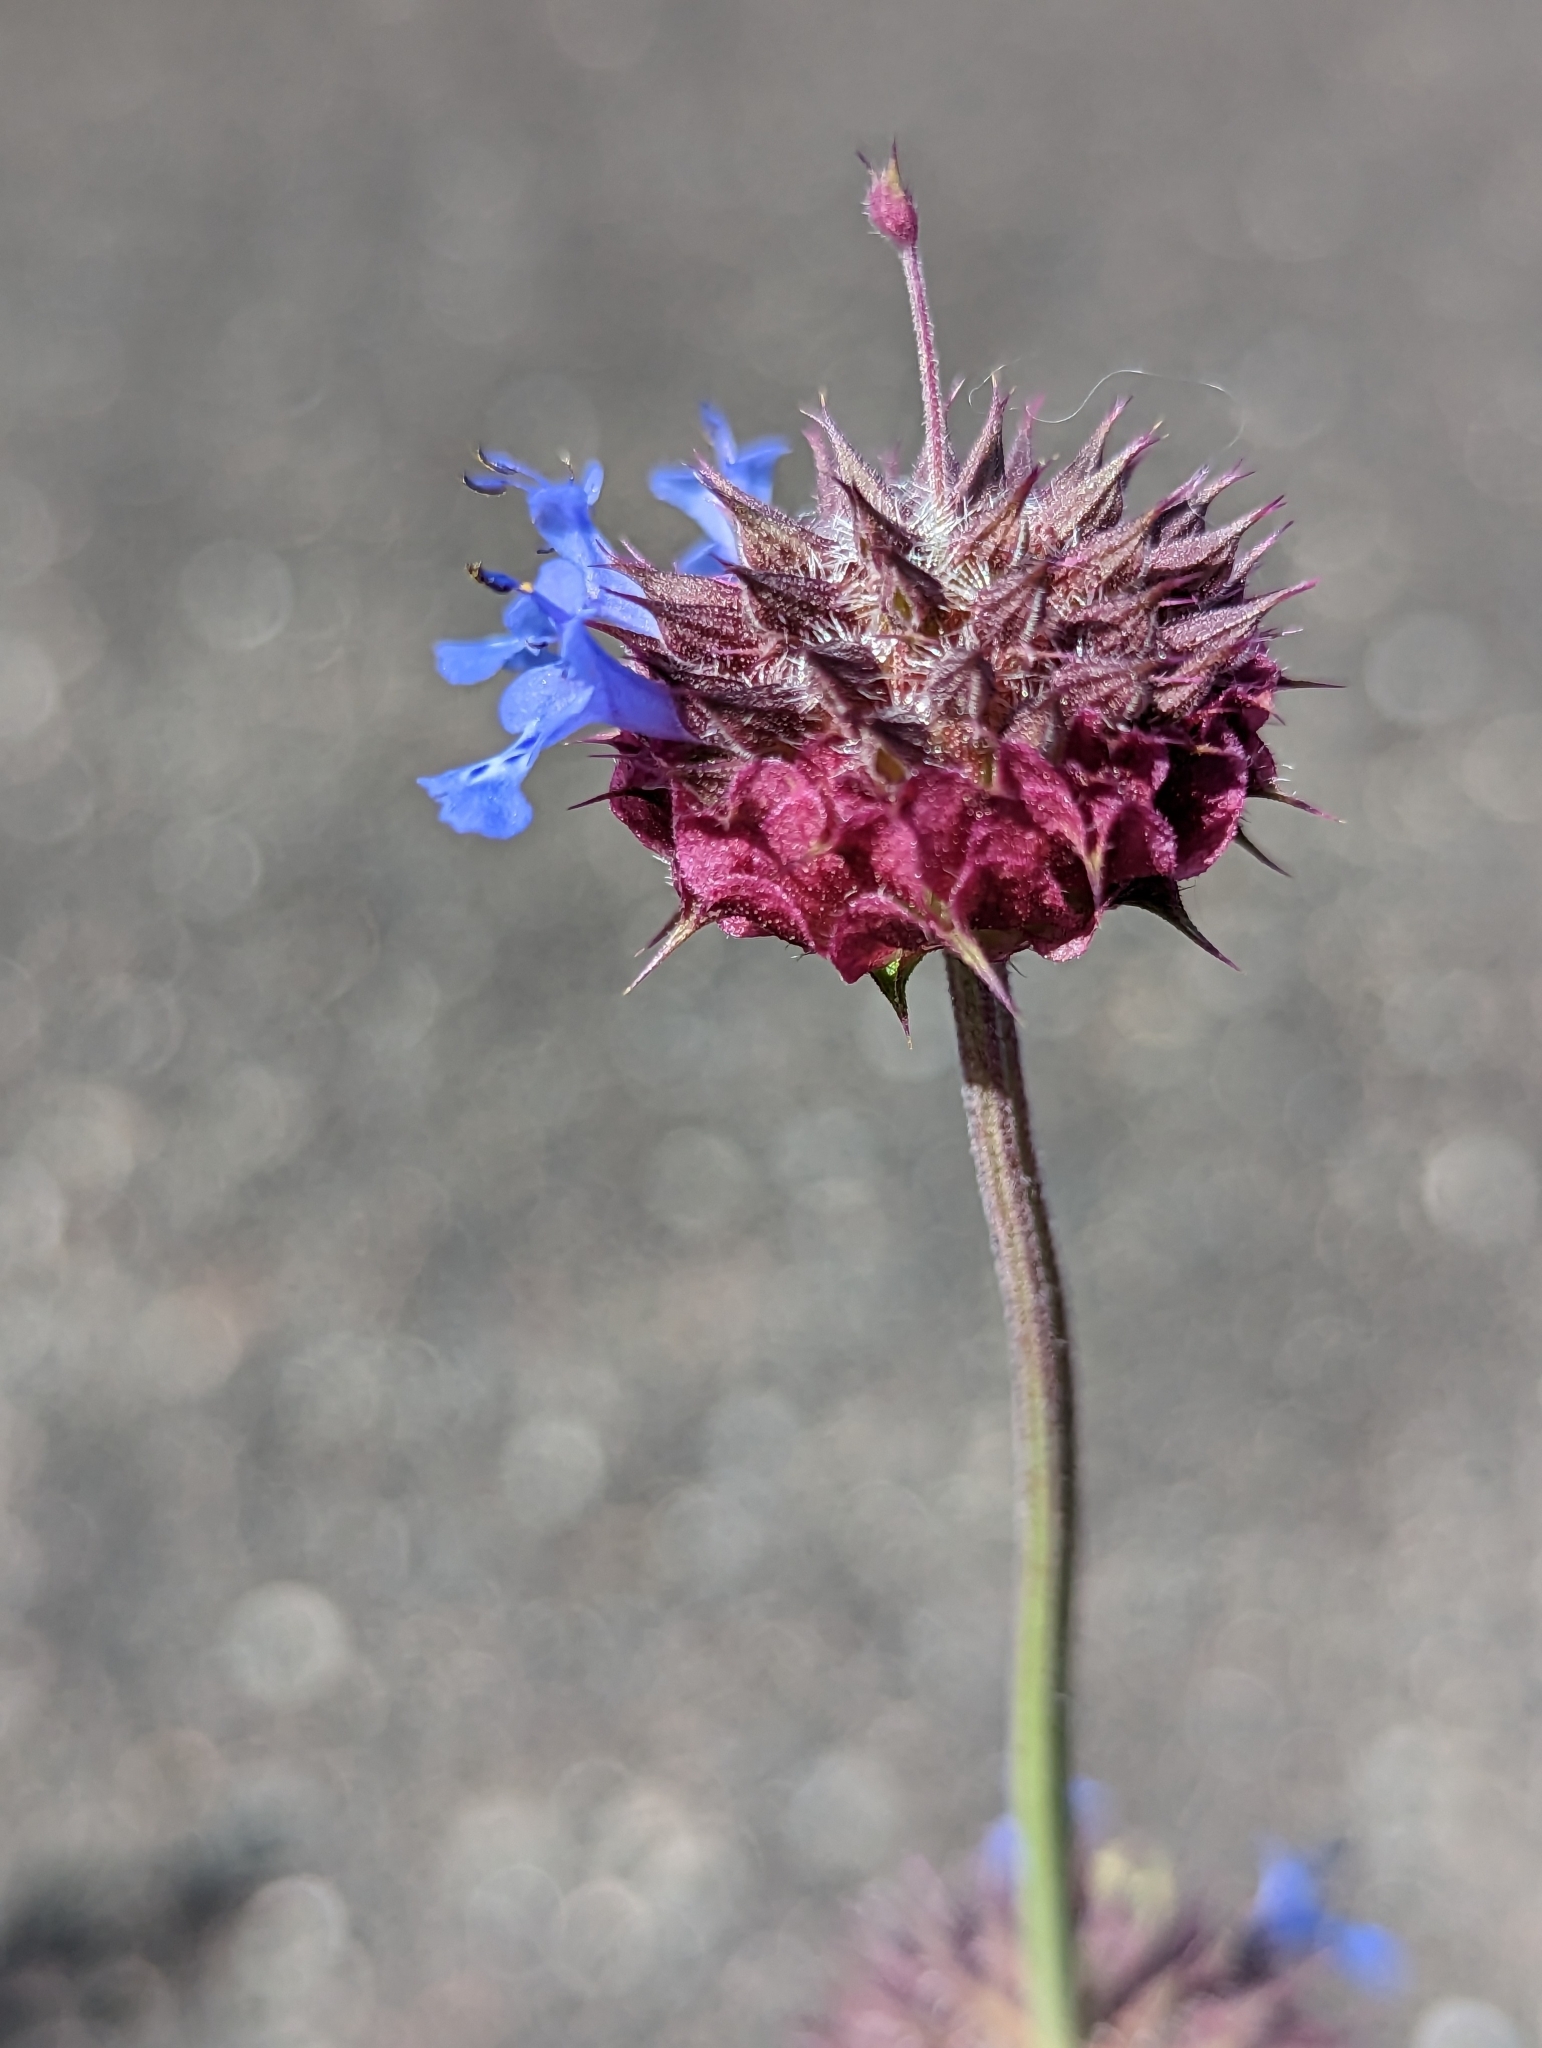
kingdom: Plantae
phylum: Tracheophyta
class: Magnoliopsida
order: Lamiales
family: Lamiaceae
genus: Salvia
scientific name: Salvia columbariae
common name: Chia
